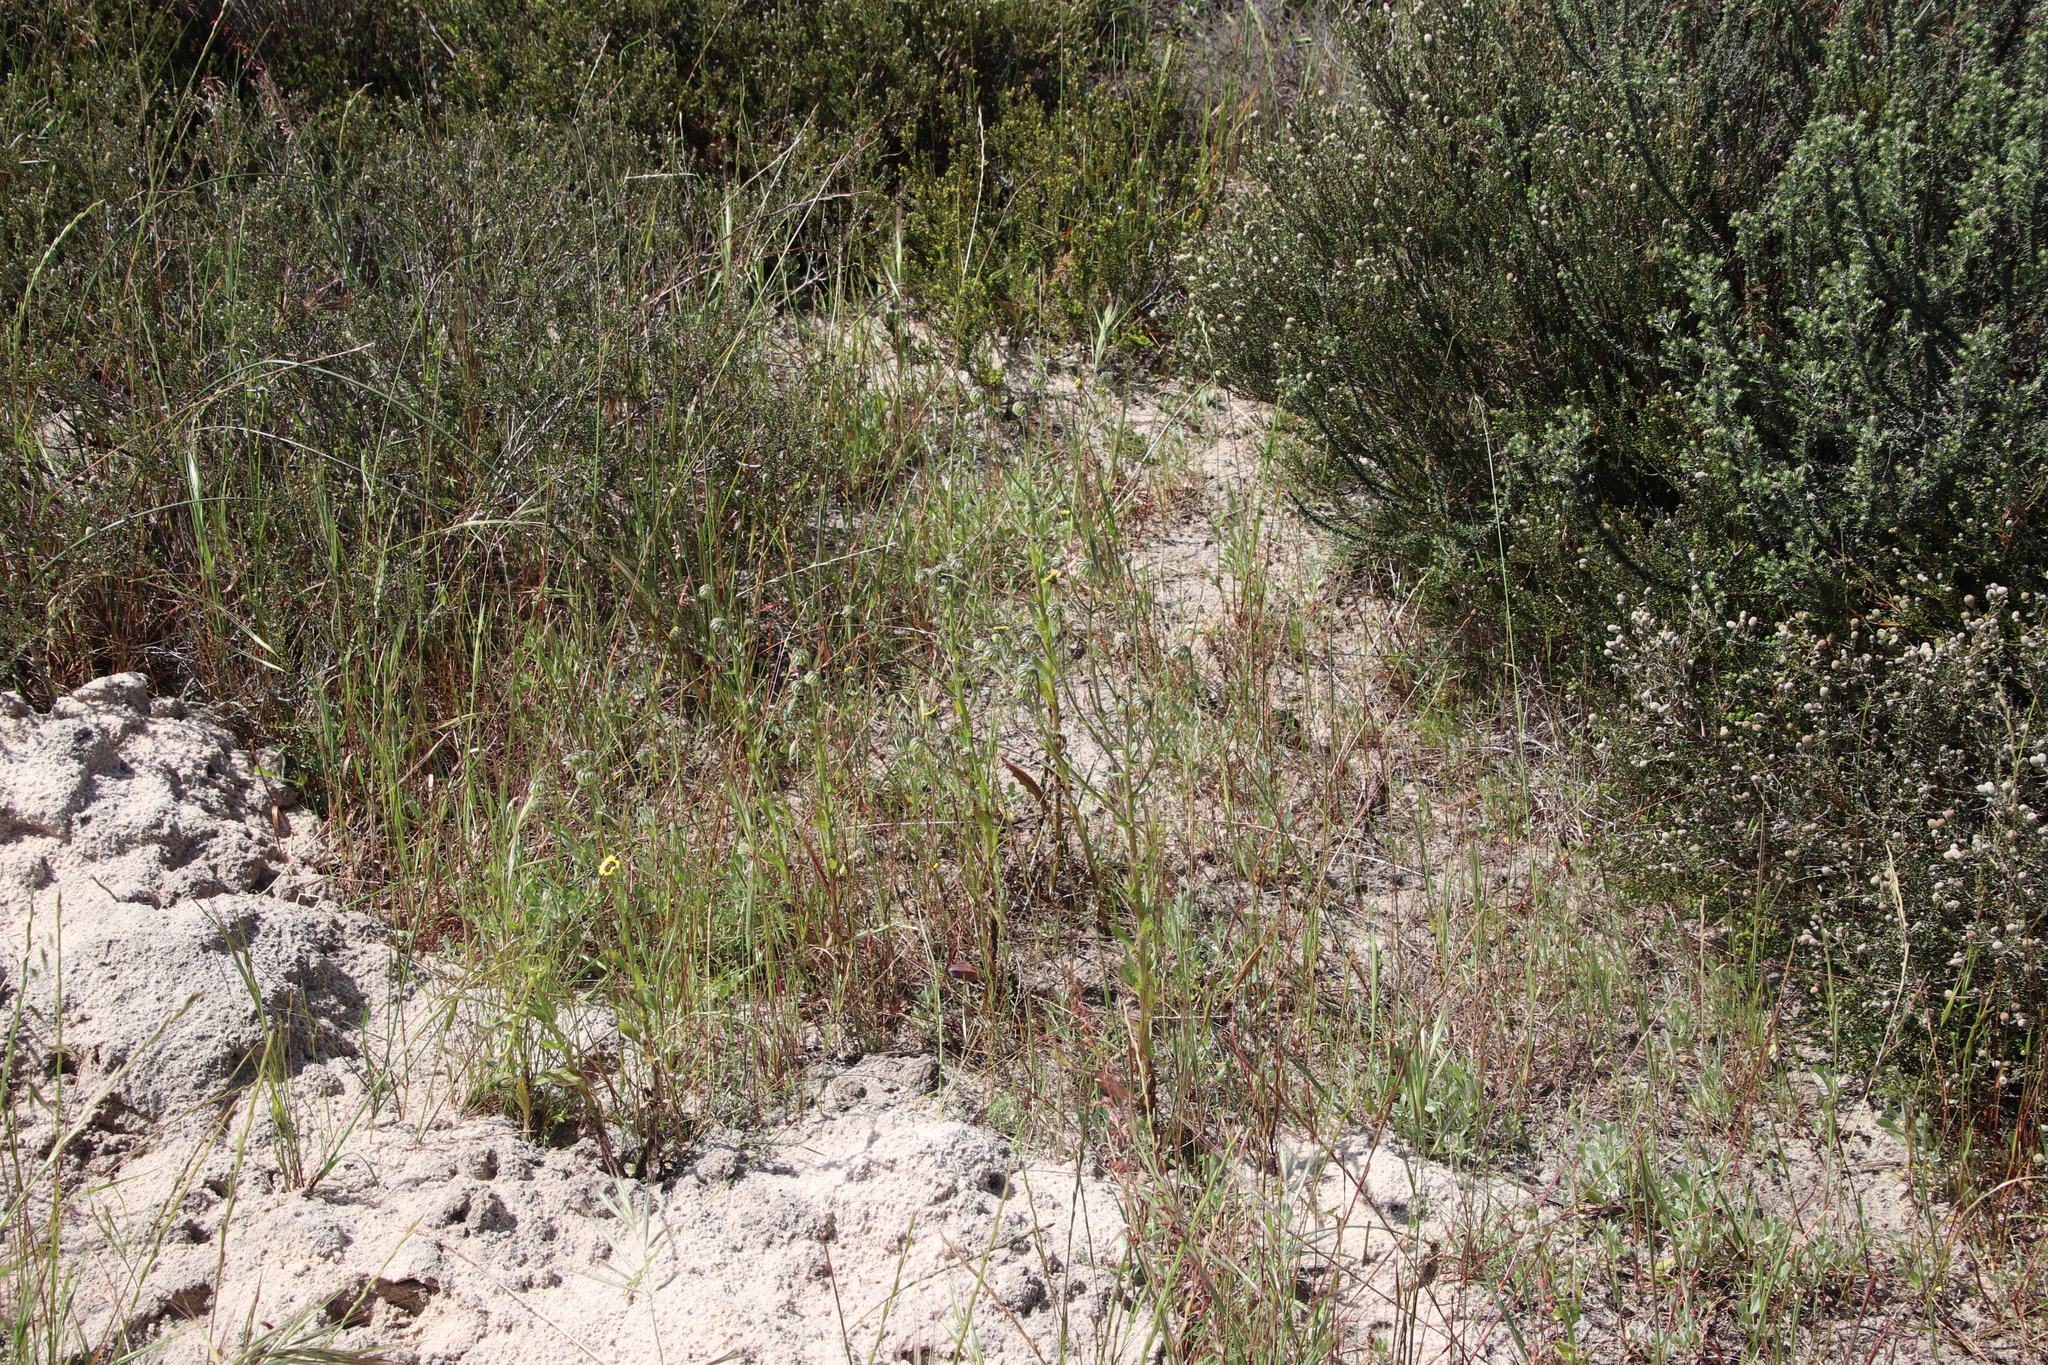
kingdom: Plantae
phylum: Tracheophyta
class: Magnoliopsida
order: Asterales
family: Asteraceae
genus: Osteospermum
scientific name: Osteospermum monstrosum
